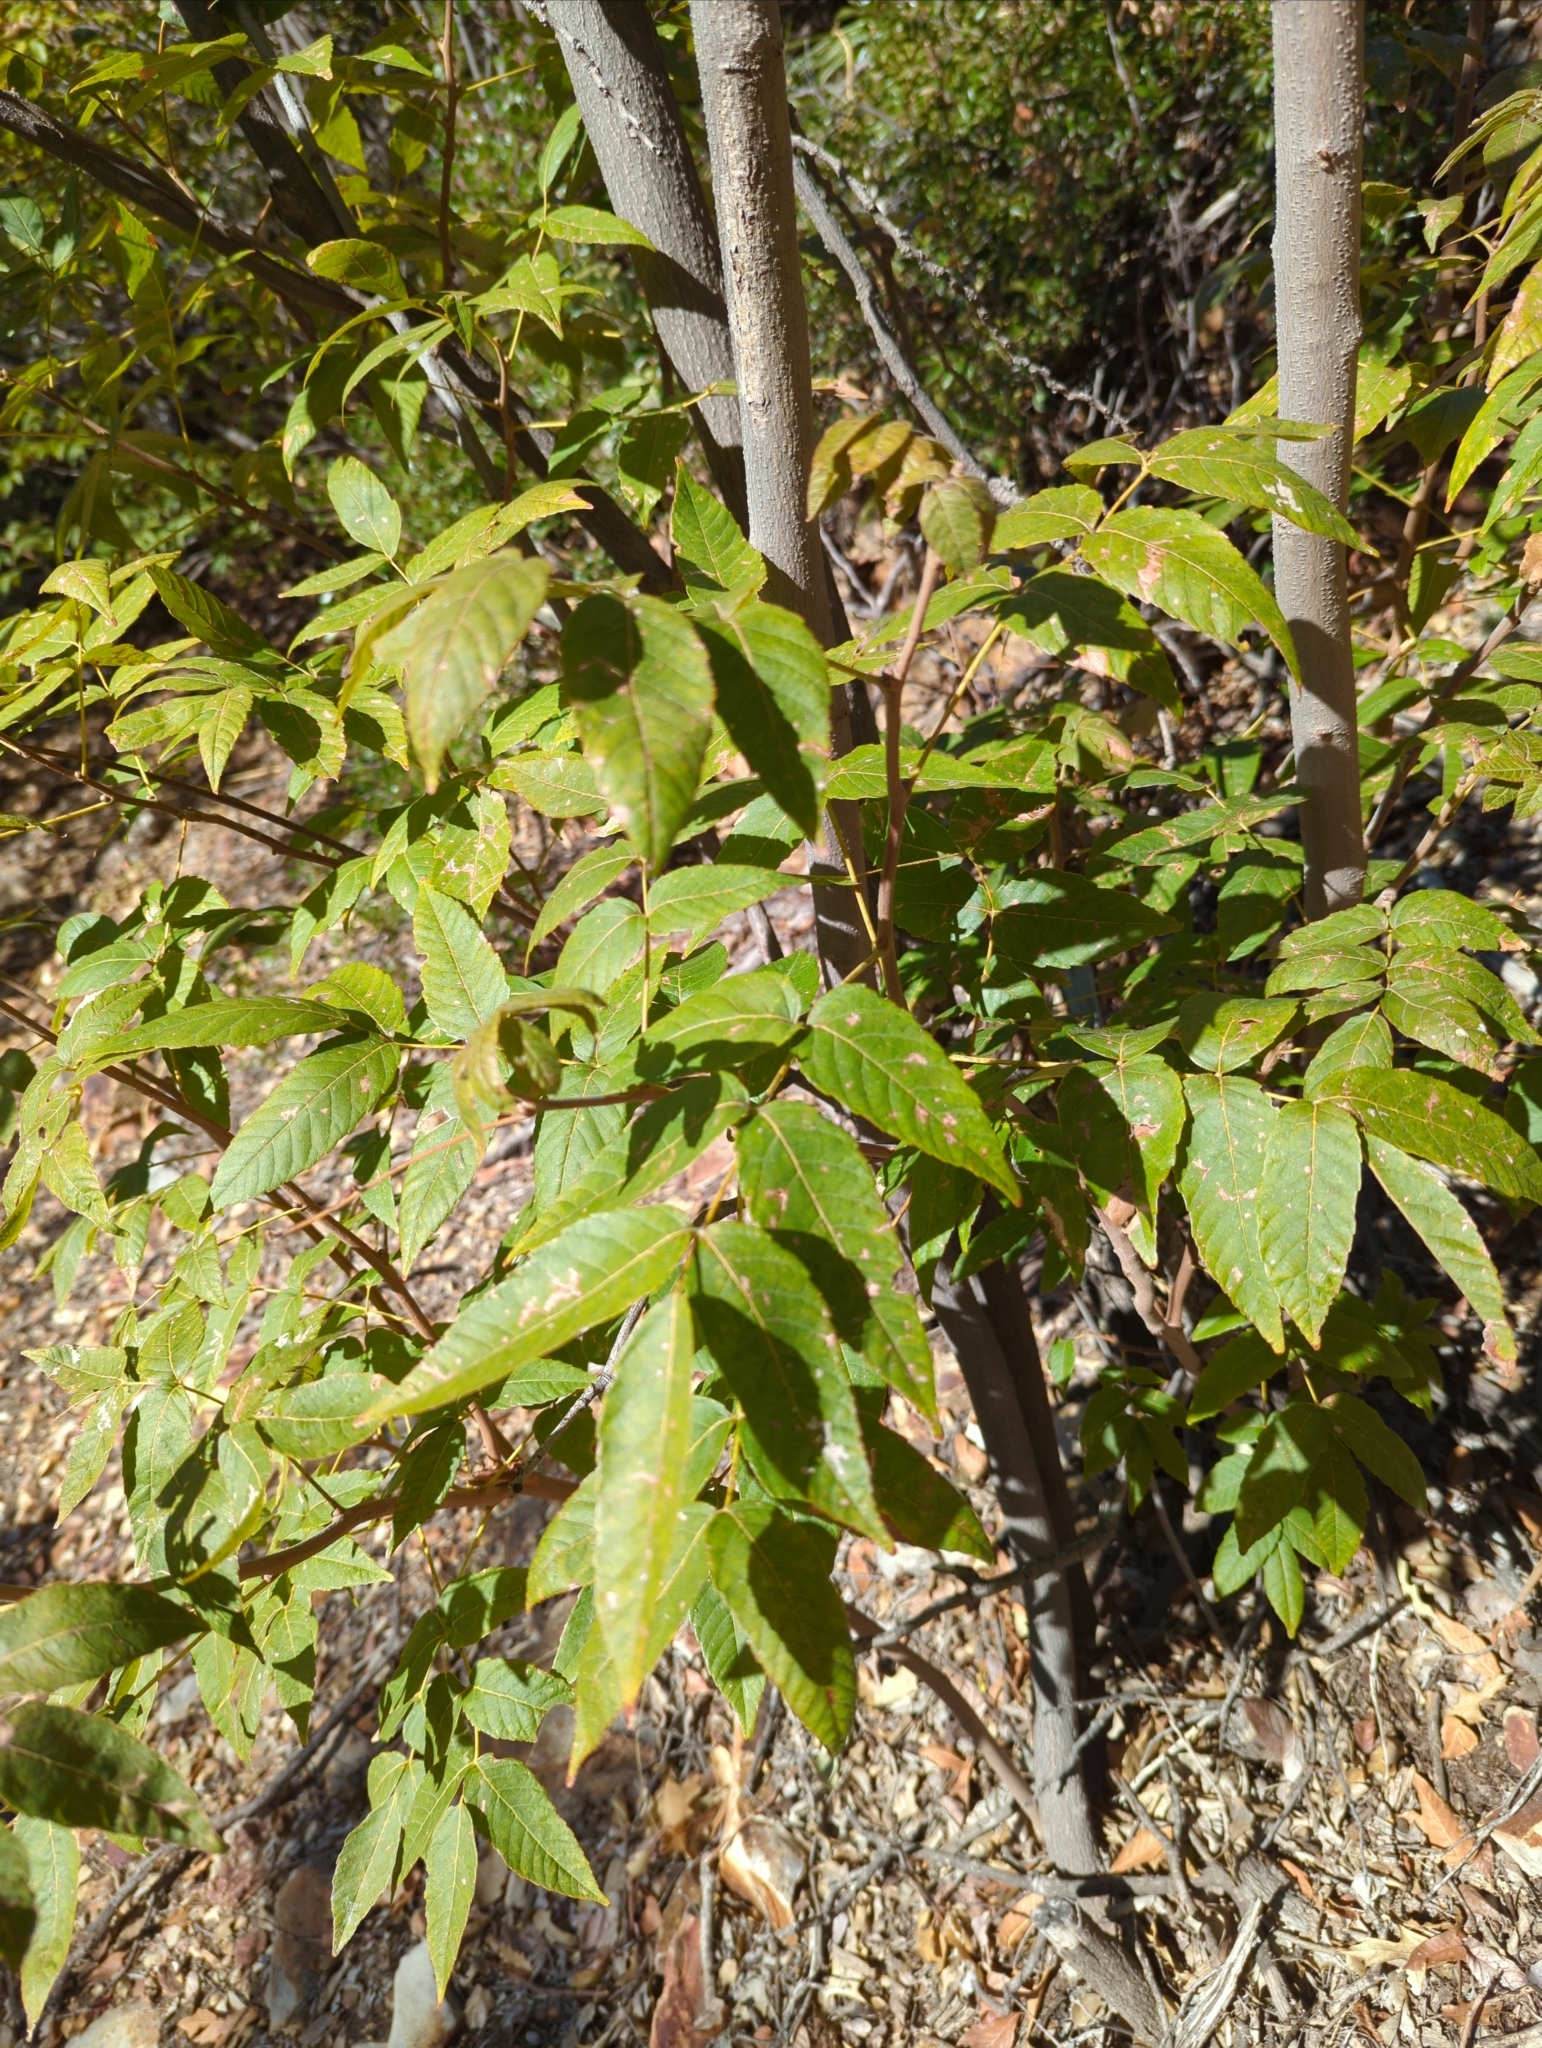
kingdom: Plantae
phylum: Tracheophyta
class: Magnoliopsida
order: Sapindales
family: Sapindaceae
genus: Ungnadia
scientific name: Ungnadia speciosa
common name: Texas-buckeye
